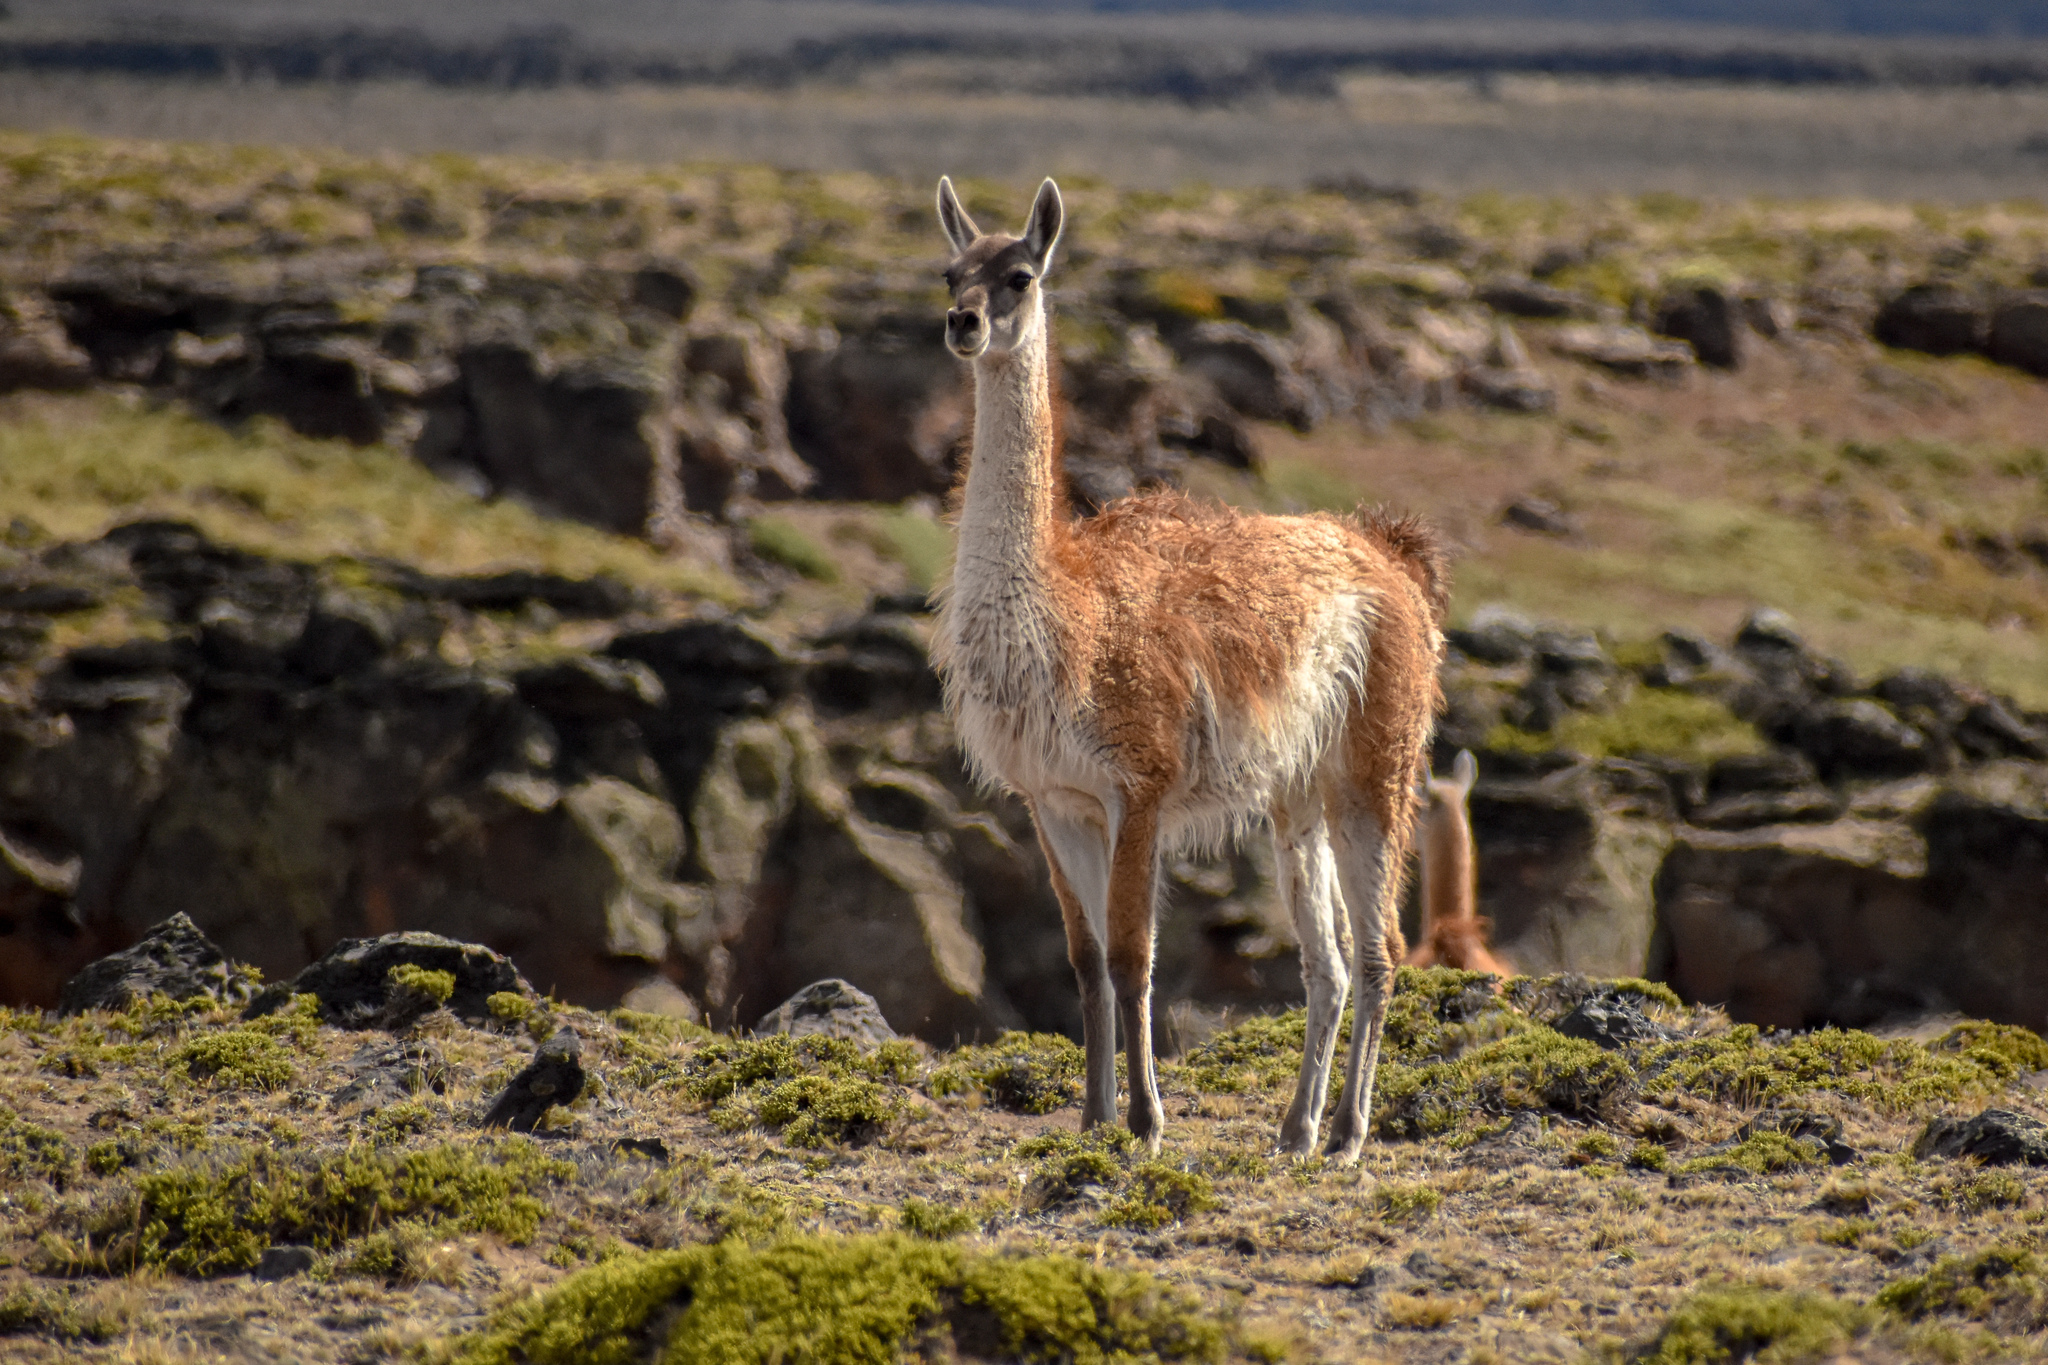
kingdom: Animalia
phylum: Chordata
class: Mammalia
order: Artiodactyla
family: Camelidae
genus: Lama
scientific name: Lama glama
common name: Llama
